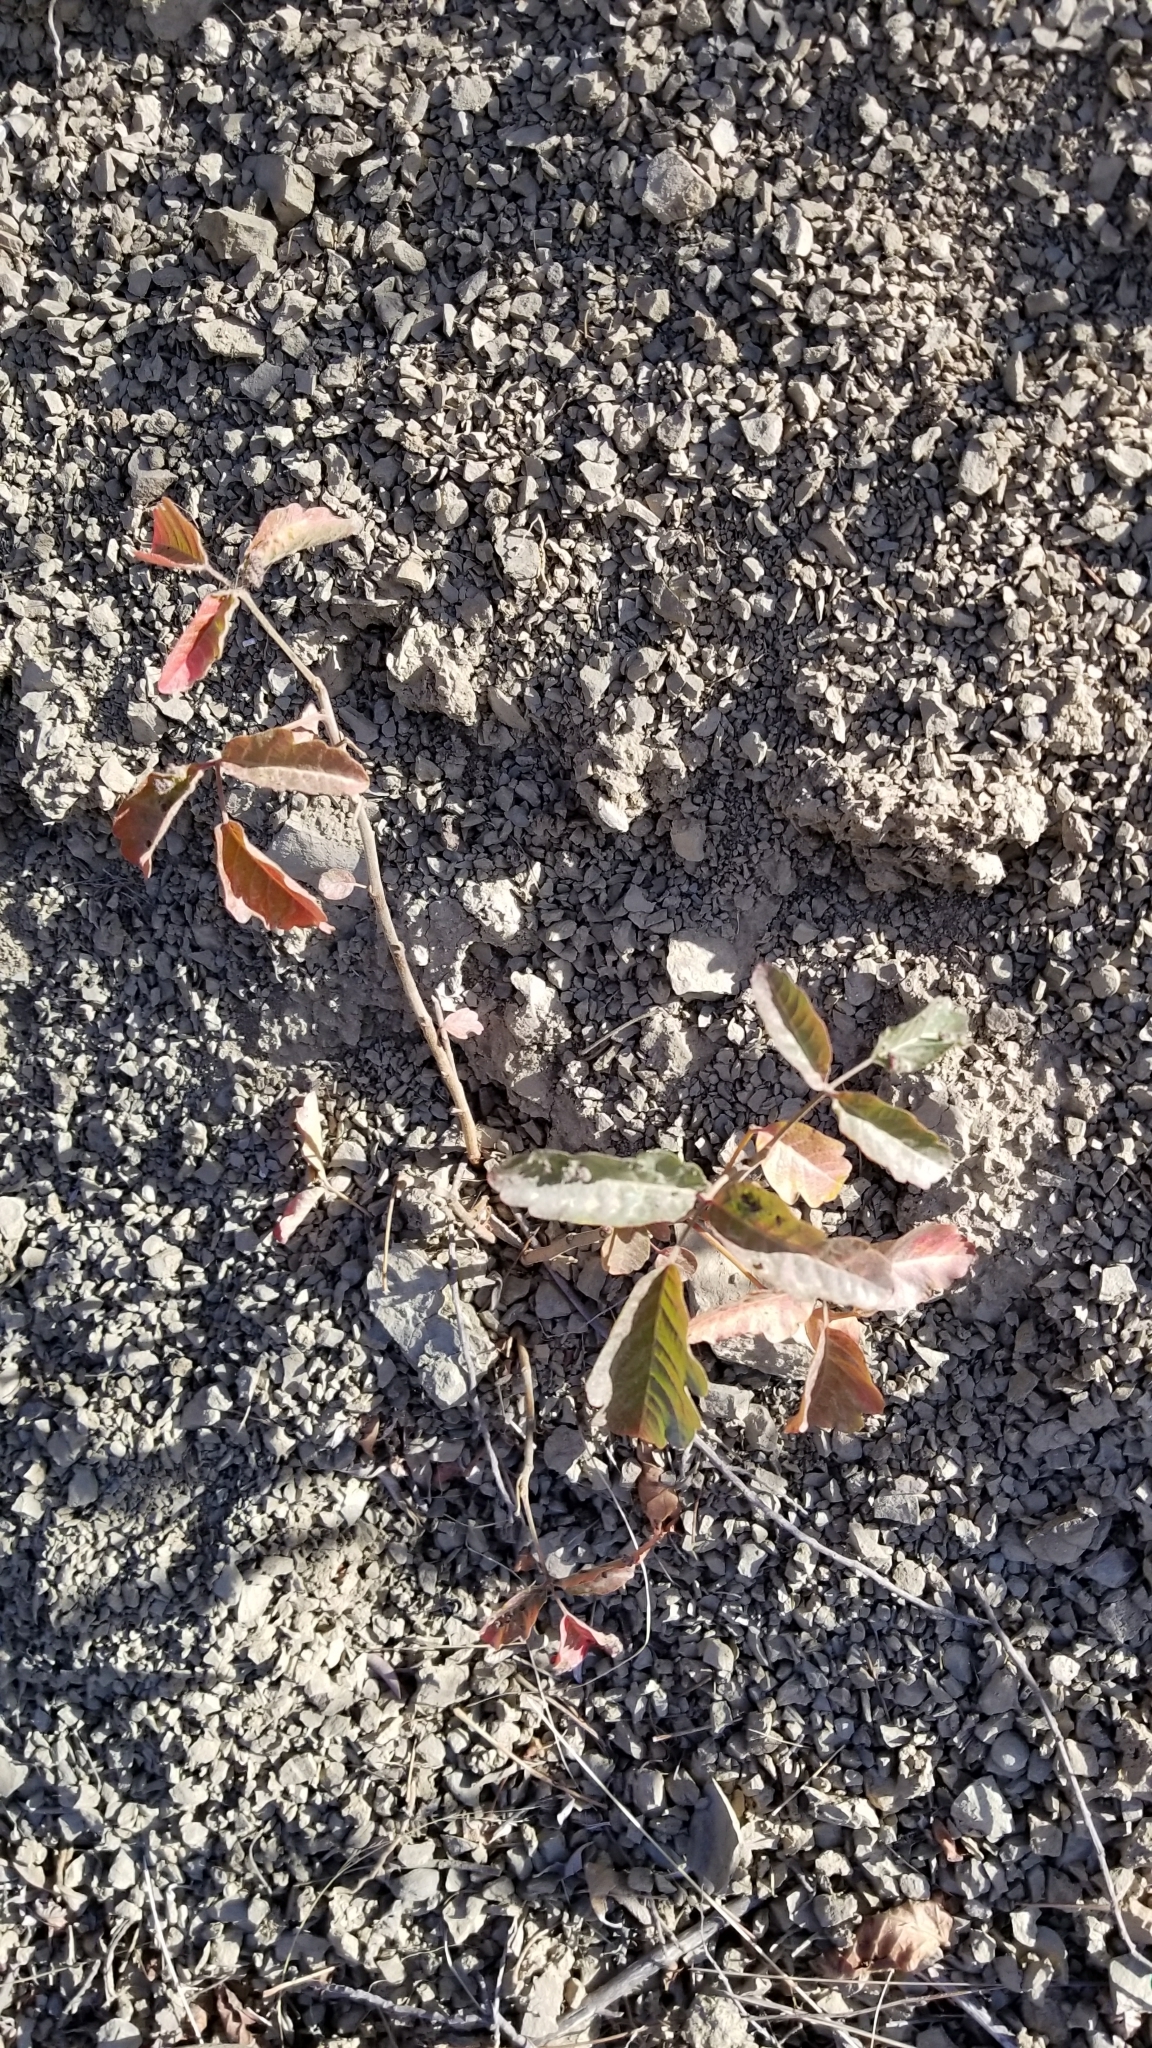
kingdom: Plantae
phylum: Tracheophyta
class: Magnoliopsida
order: Sapindales
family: Anacardiaceae
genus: Toxicodendron
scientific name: Toxicodendron diversilobum
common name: Pacific poison-oak
